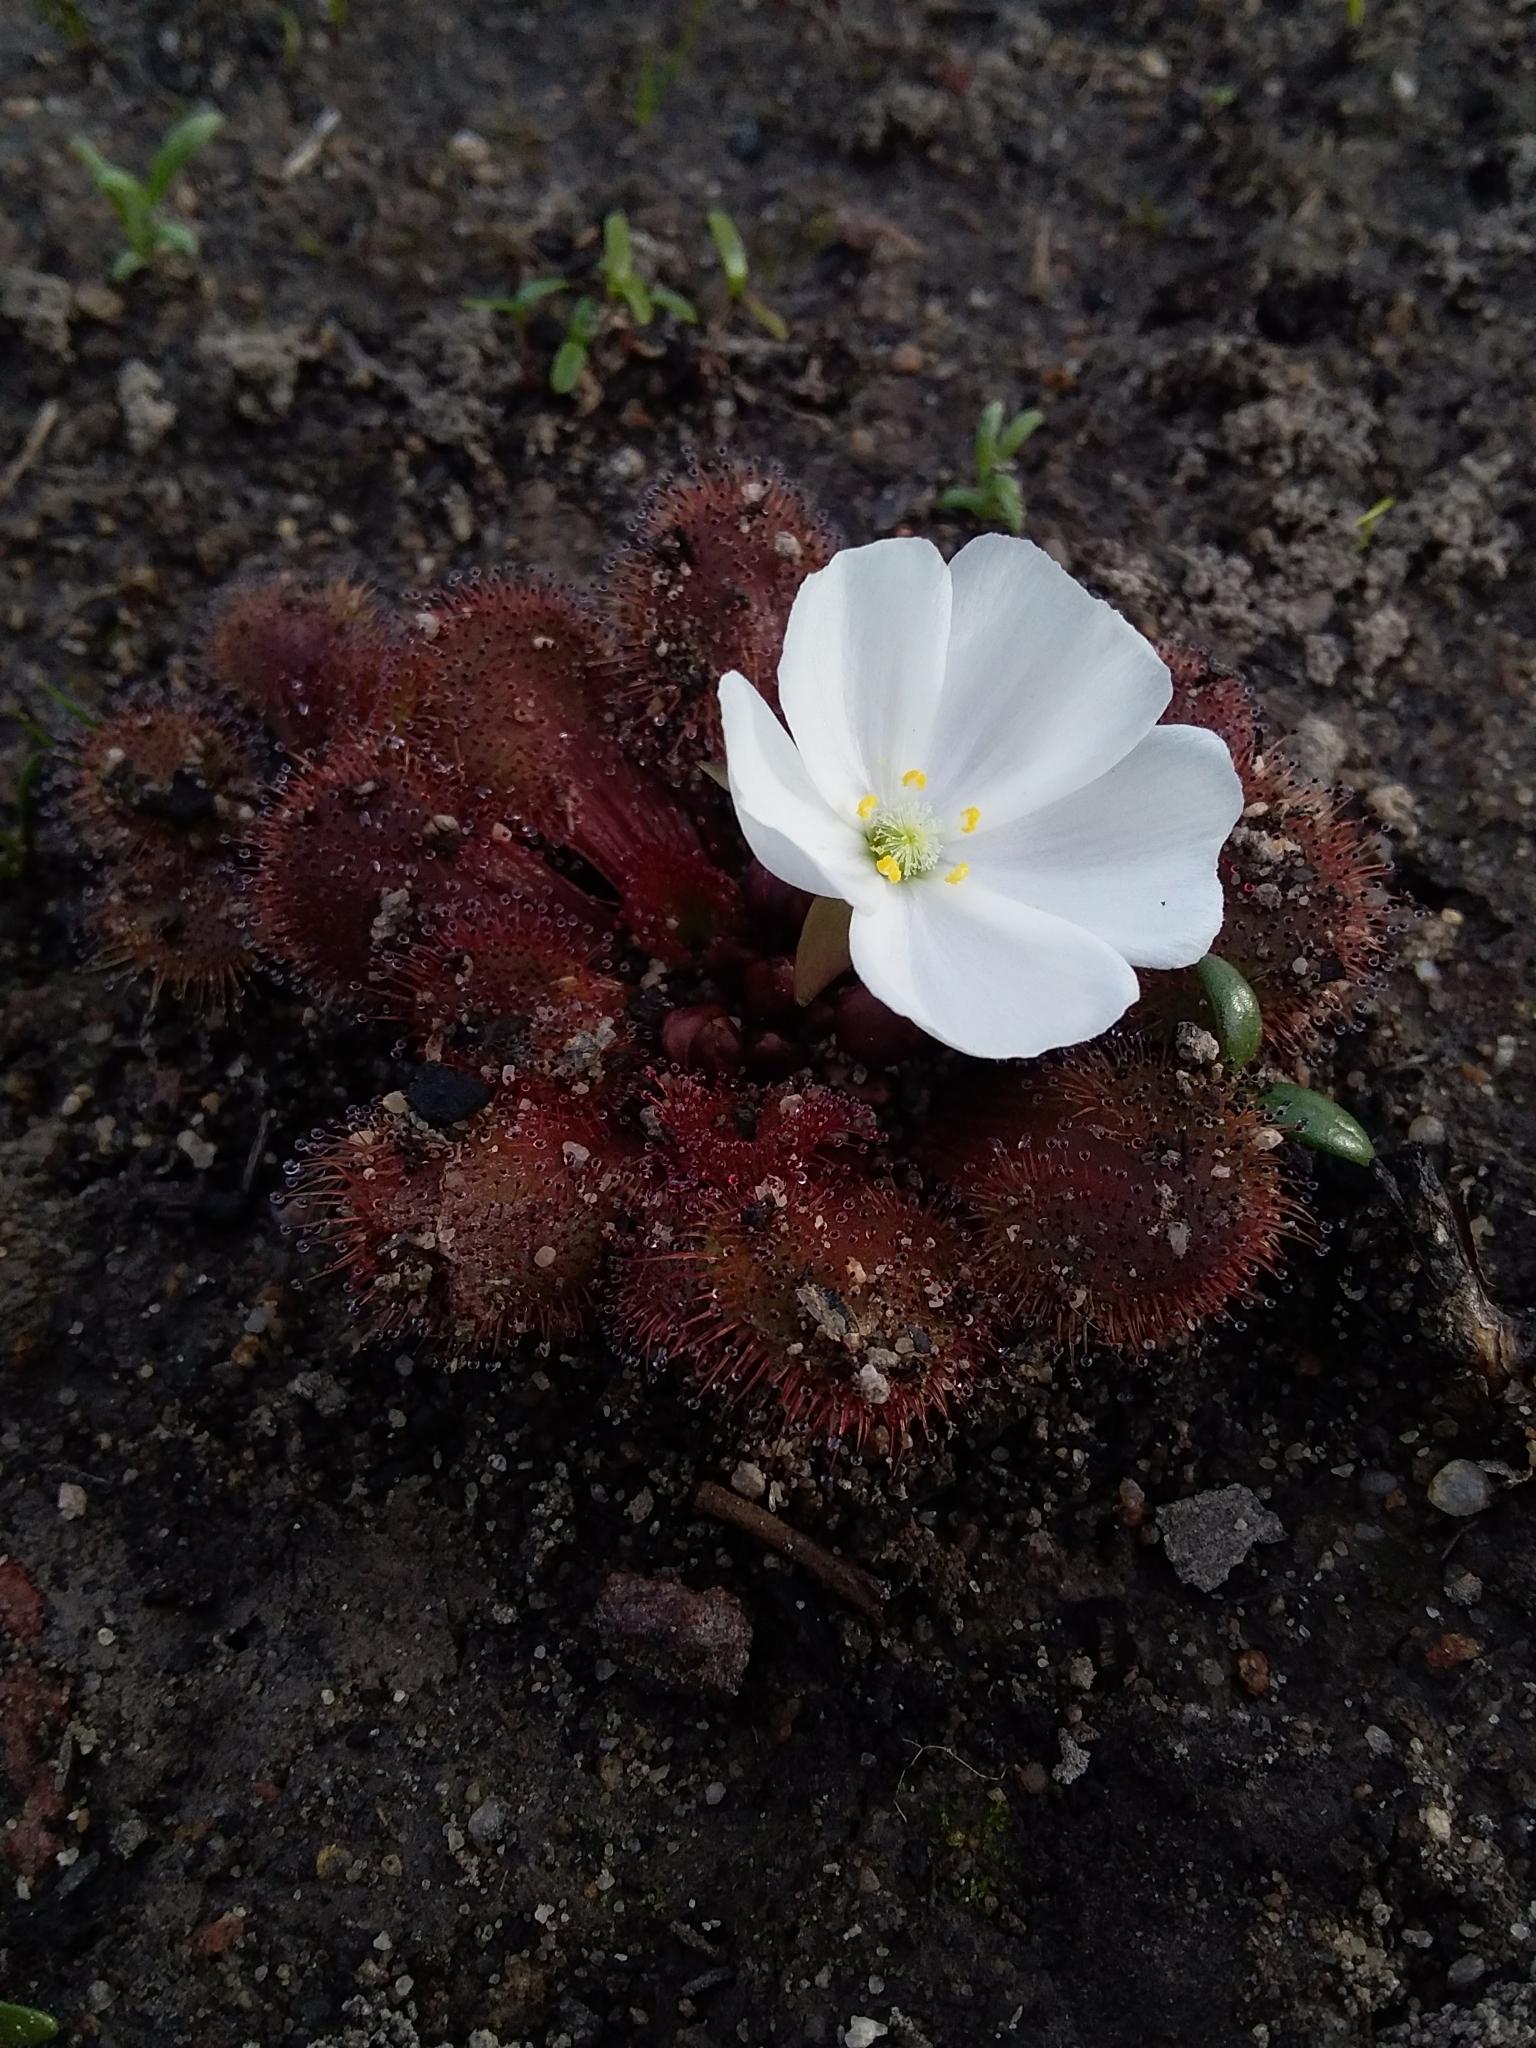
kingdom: Plantae
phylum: Tracheophyta
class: Magnoliopsida
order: Caryophyllales
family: Droseraceae
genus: Drosera
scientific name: Drosera whittakeri
